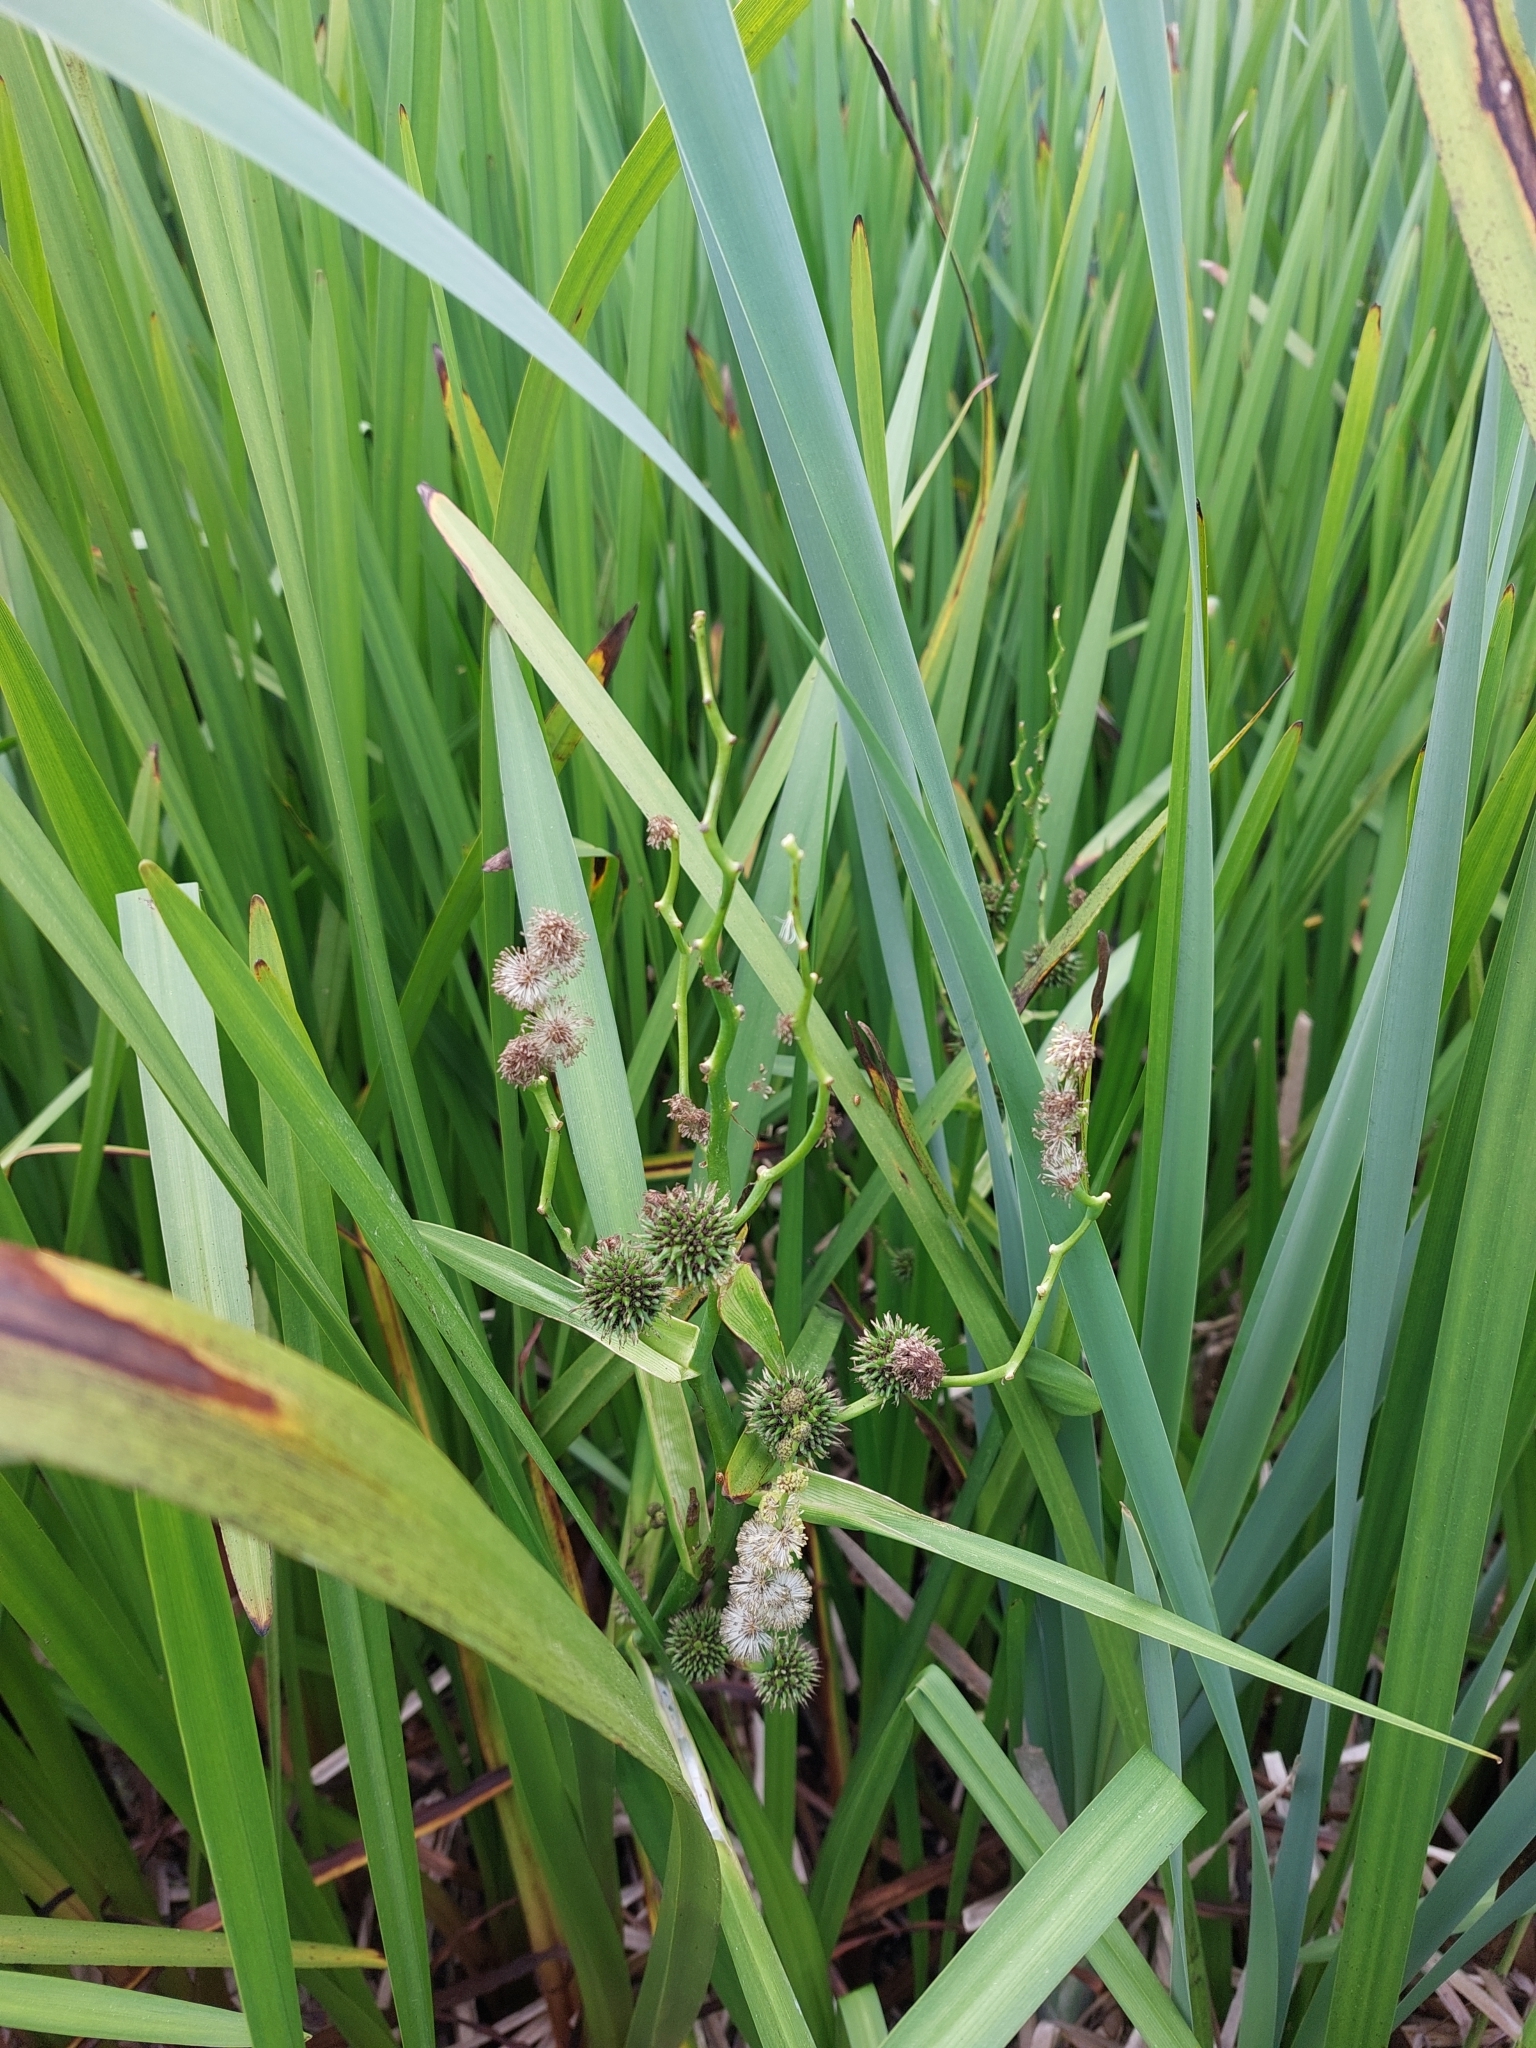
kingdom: Plantae
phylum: Tracheophyta
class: Liliopsida
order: Poales
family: Typhaceae
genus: Sparganium
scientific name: Sparganium erectum
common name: Branched bur-reed
